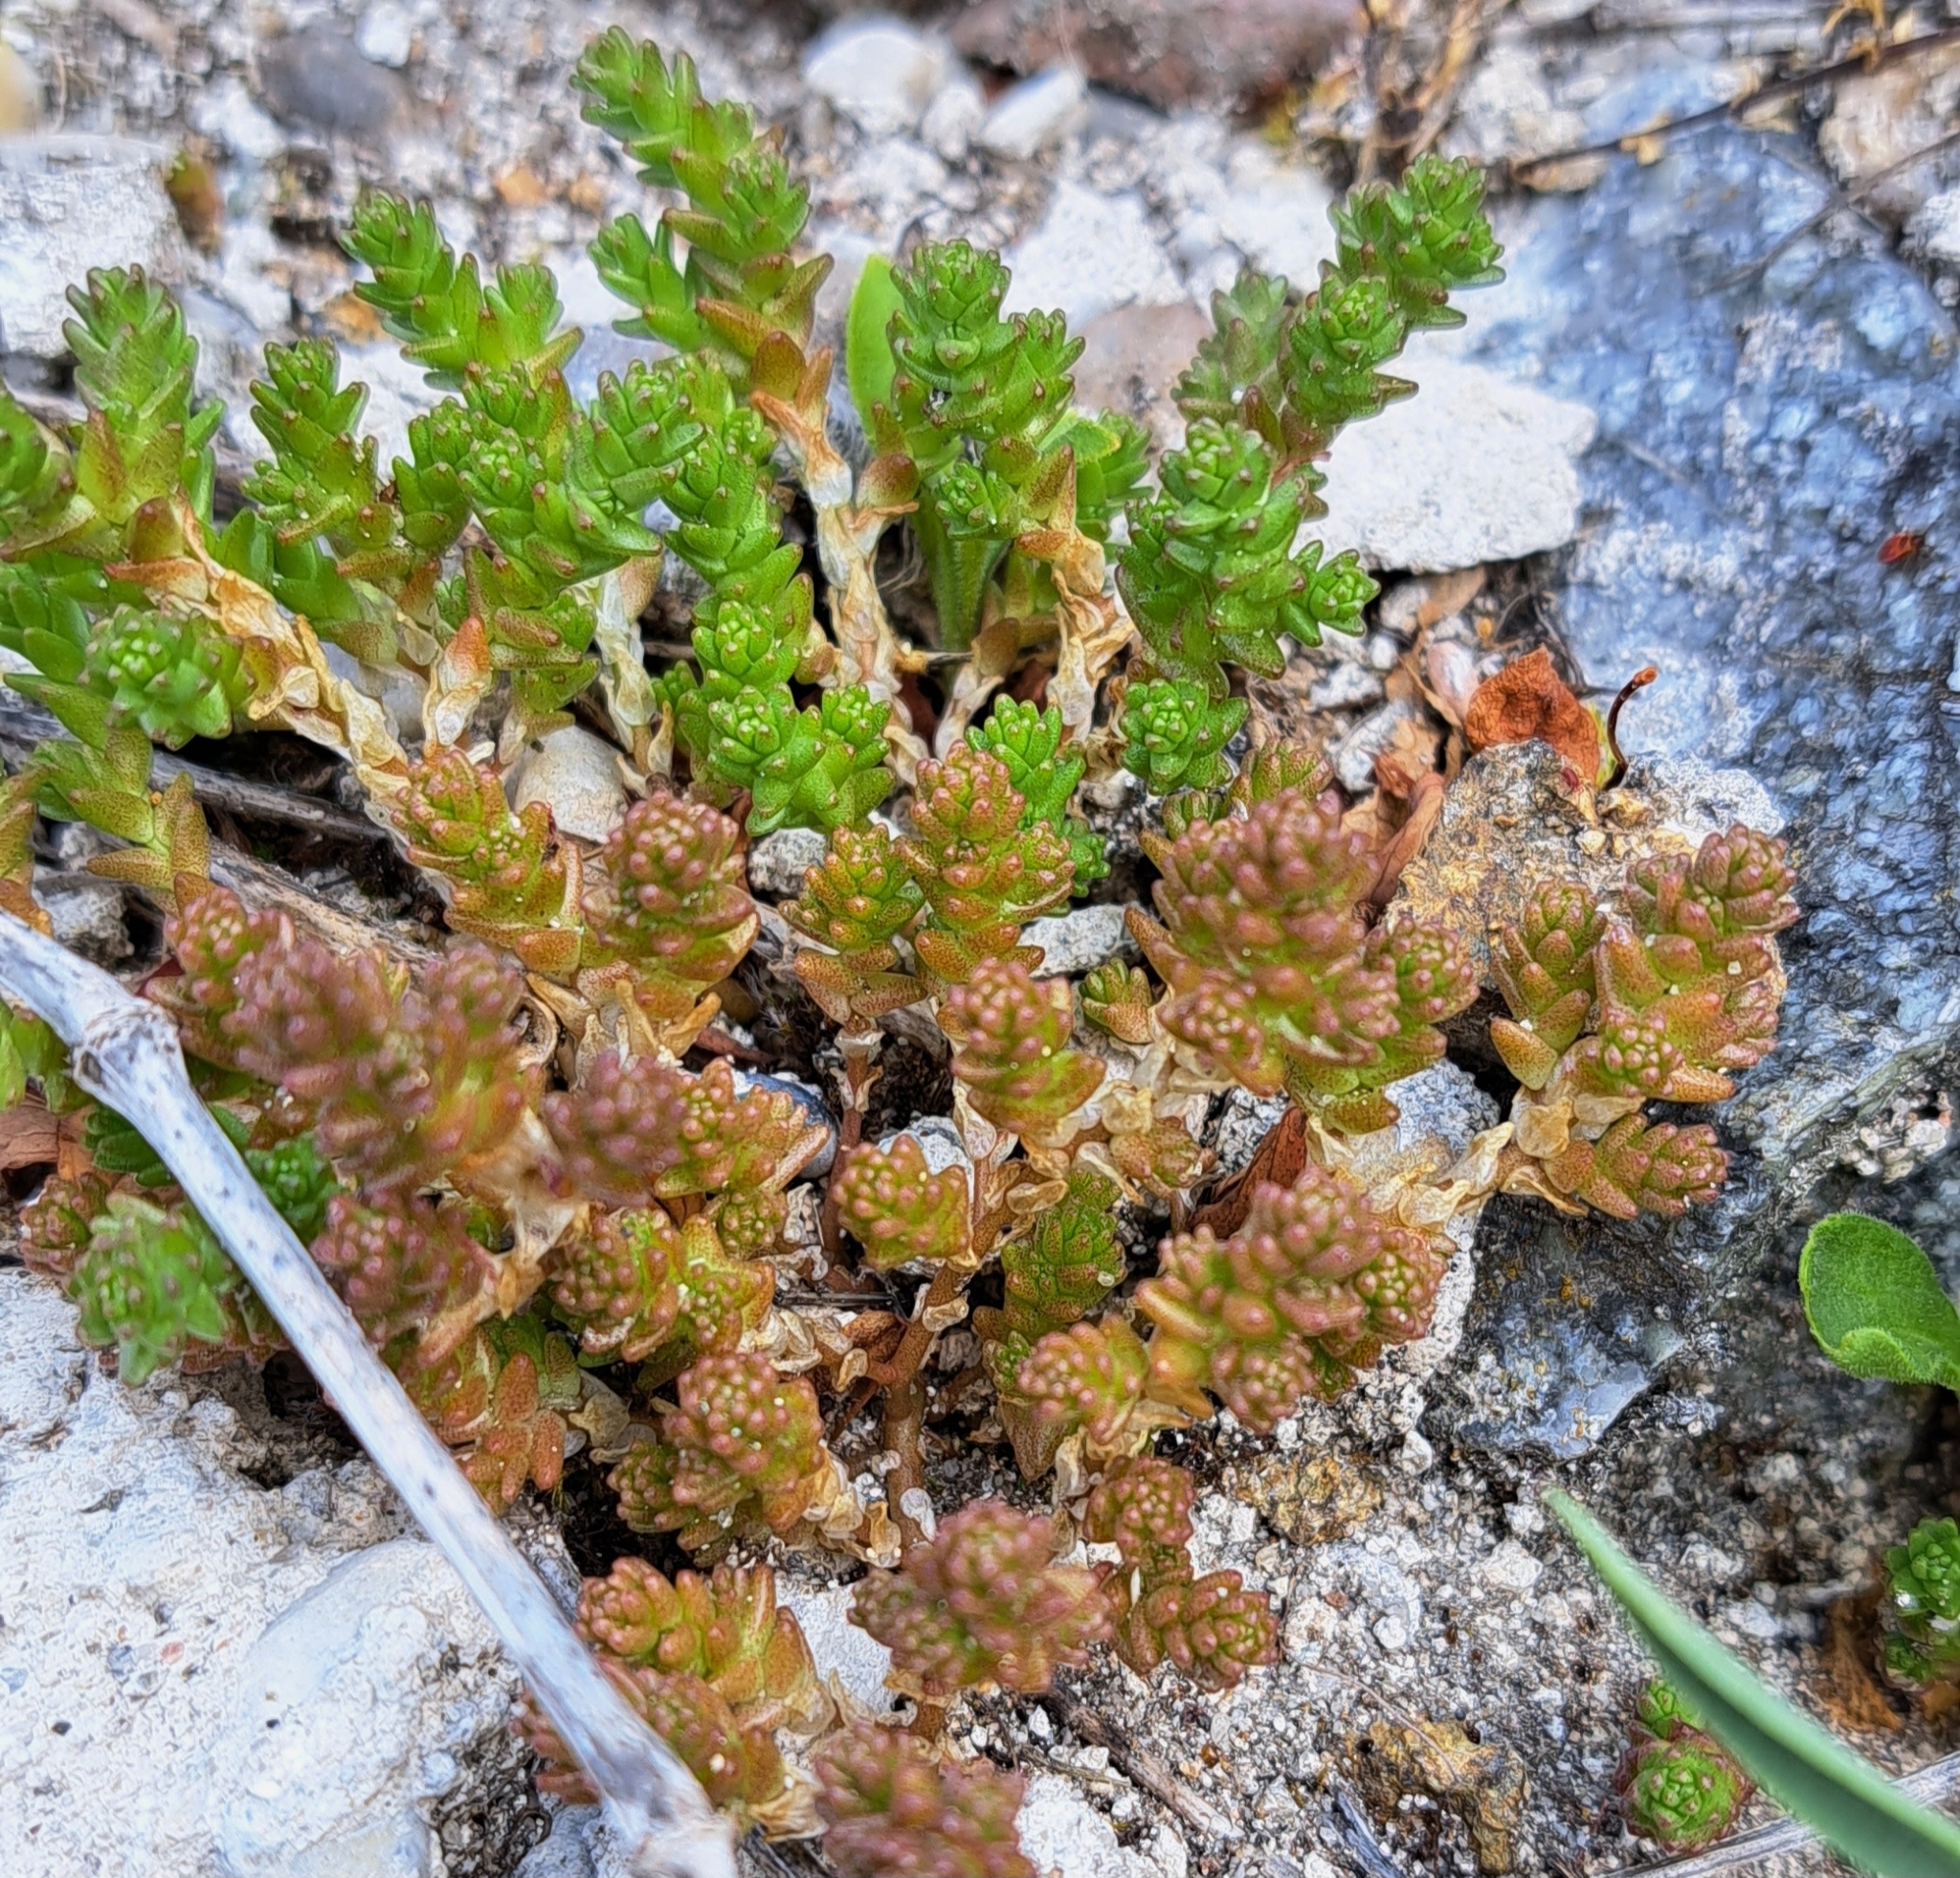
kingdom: Plantae
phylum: Tracheophyta
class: Magnoliopsida
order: Saxifragales
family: Crassulaceae
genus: Sedum
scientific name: Sedum acre
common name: Biting stonecrop
